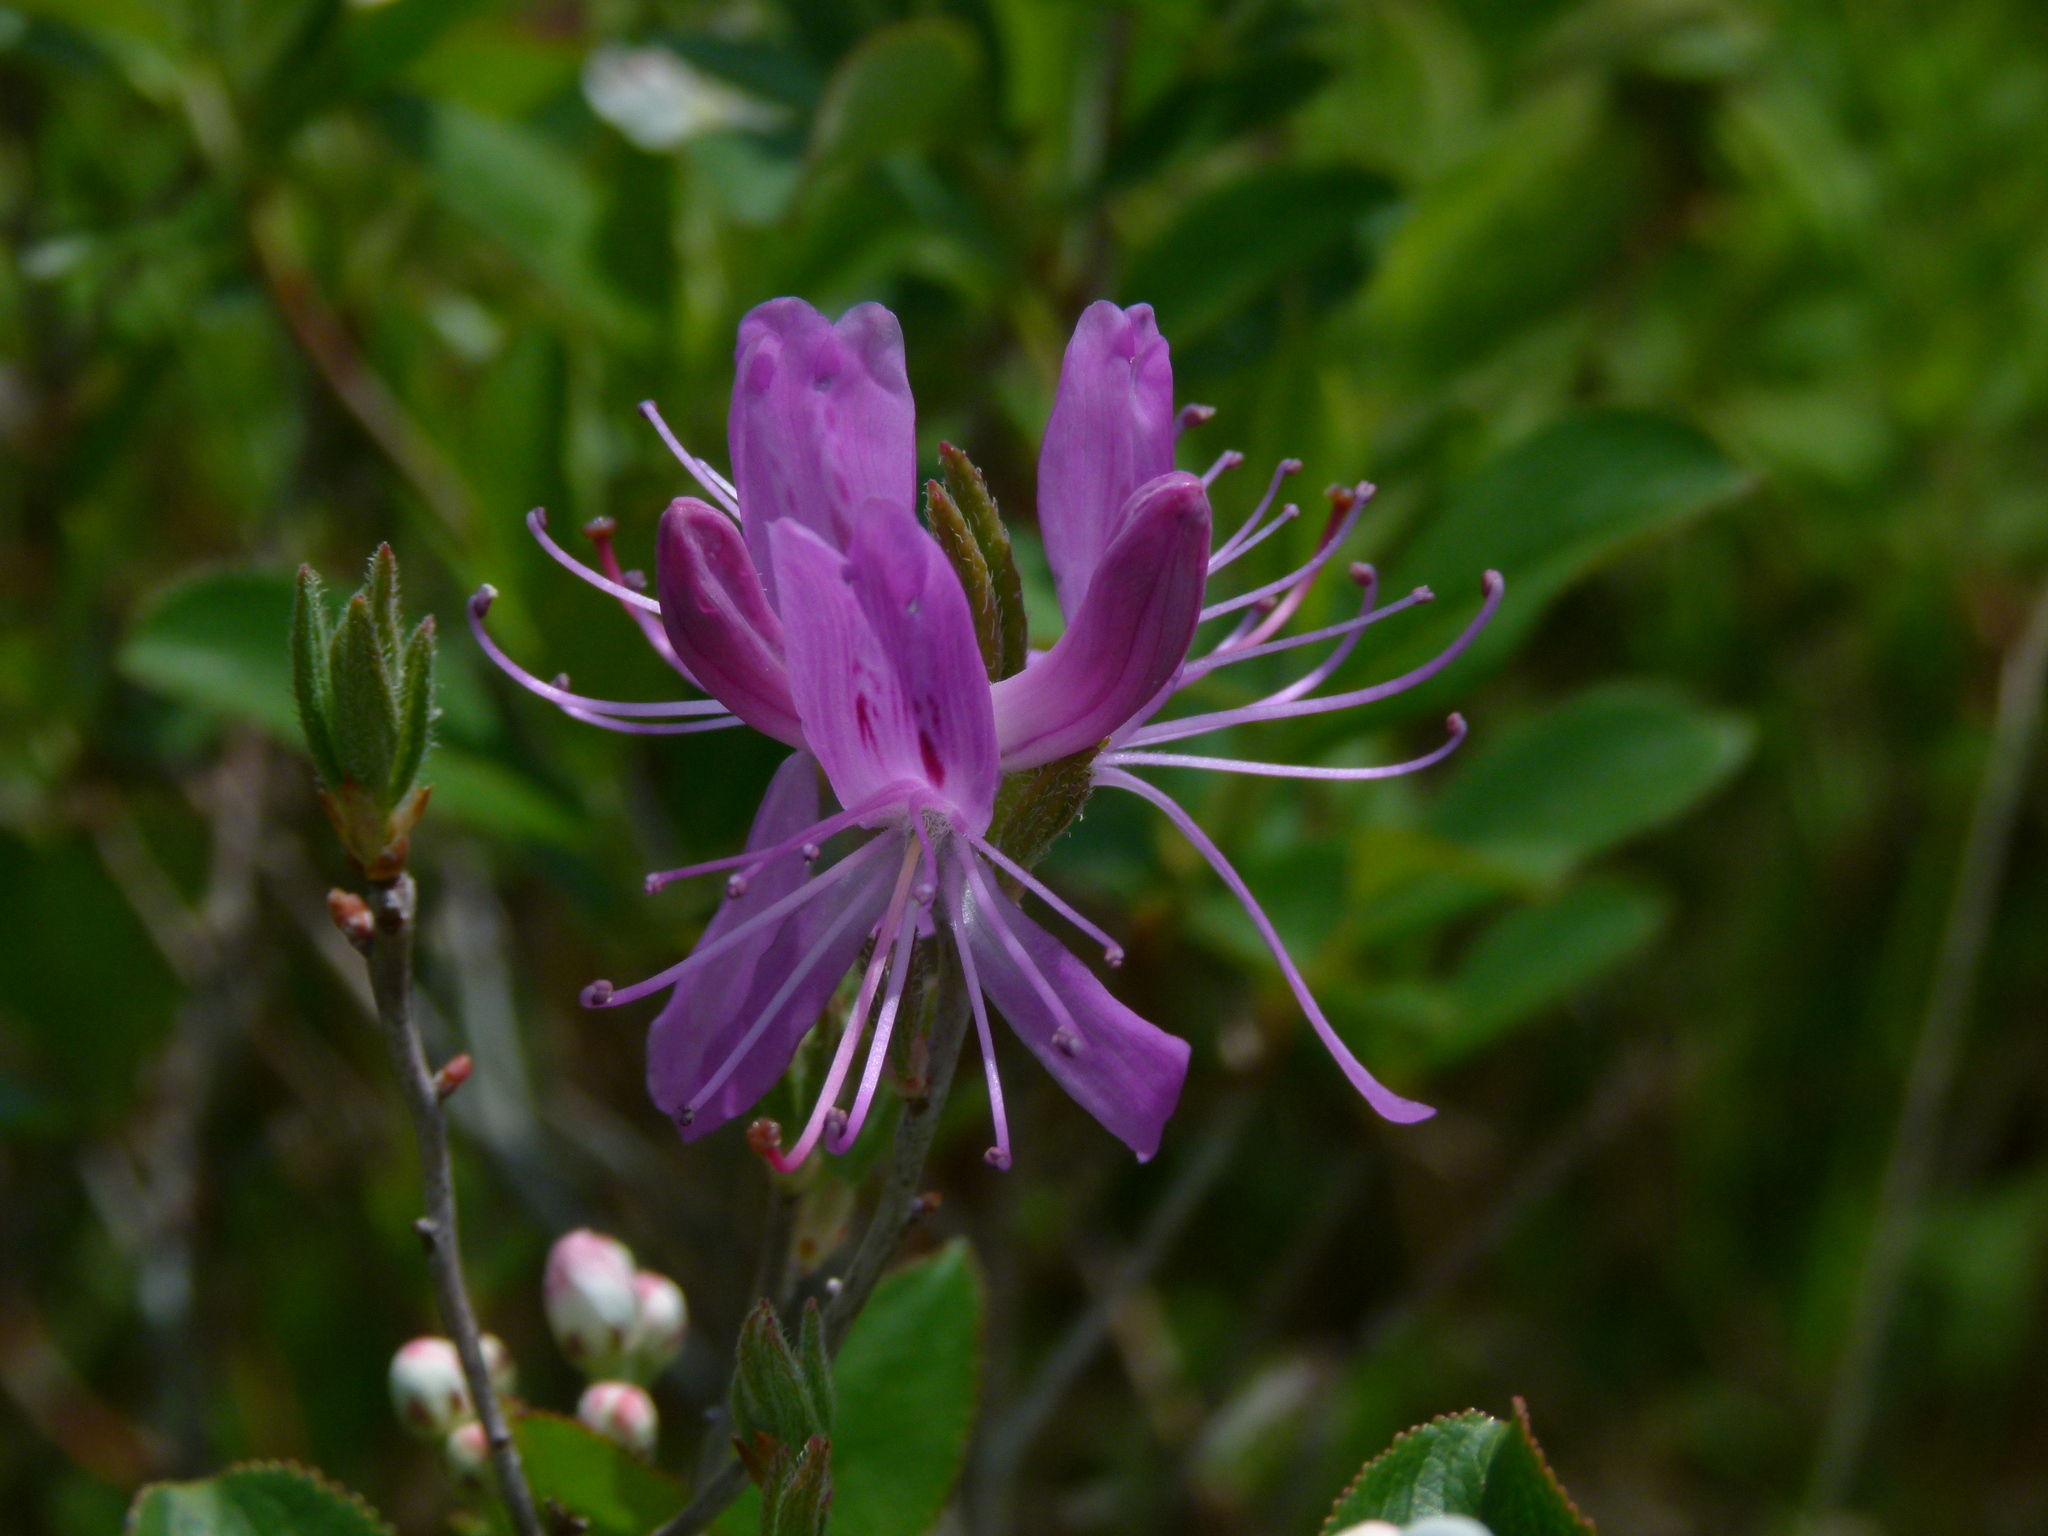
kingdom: Plantae
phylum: Tracheophyta
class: Magnoliopsida
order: Ericales
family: Ericaceae
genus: Rhododendron
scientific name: Rhododendron canadense
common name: Rhodora
